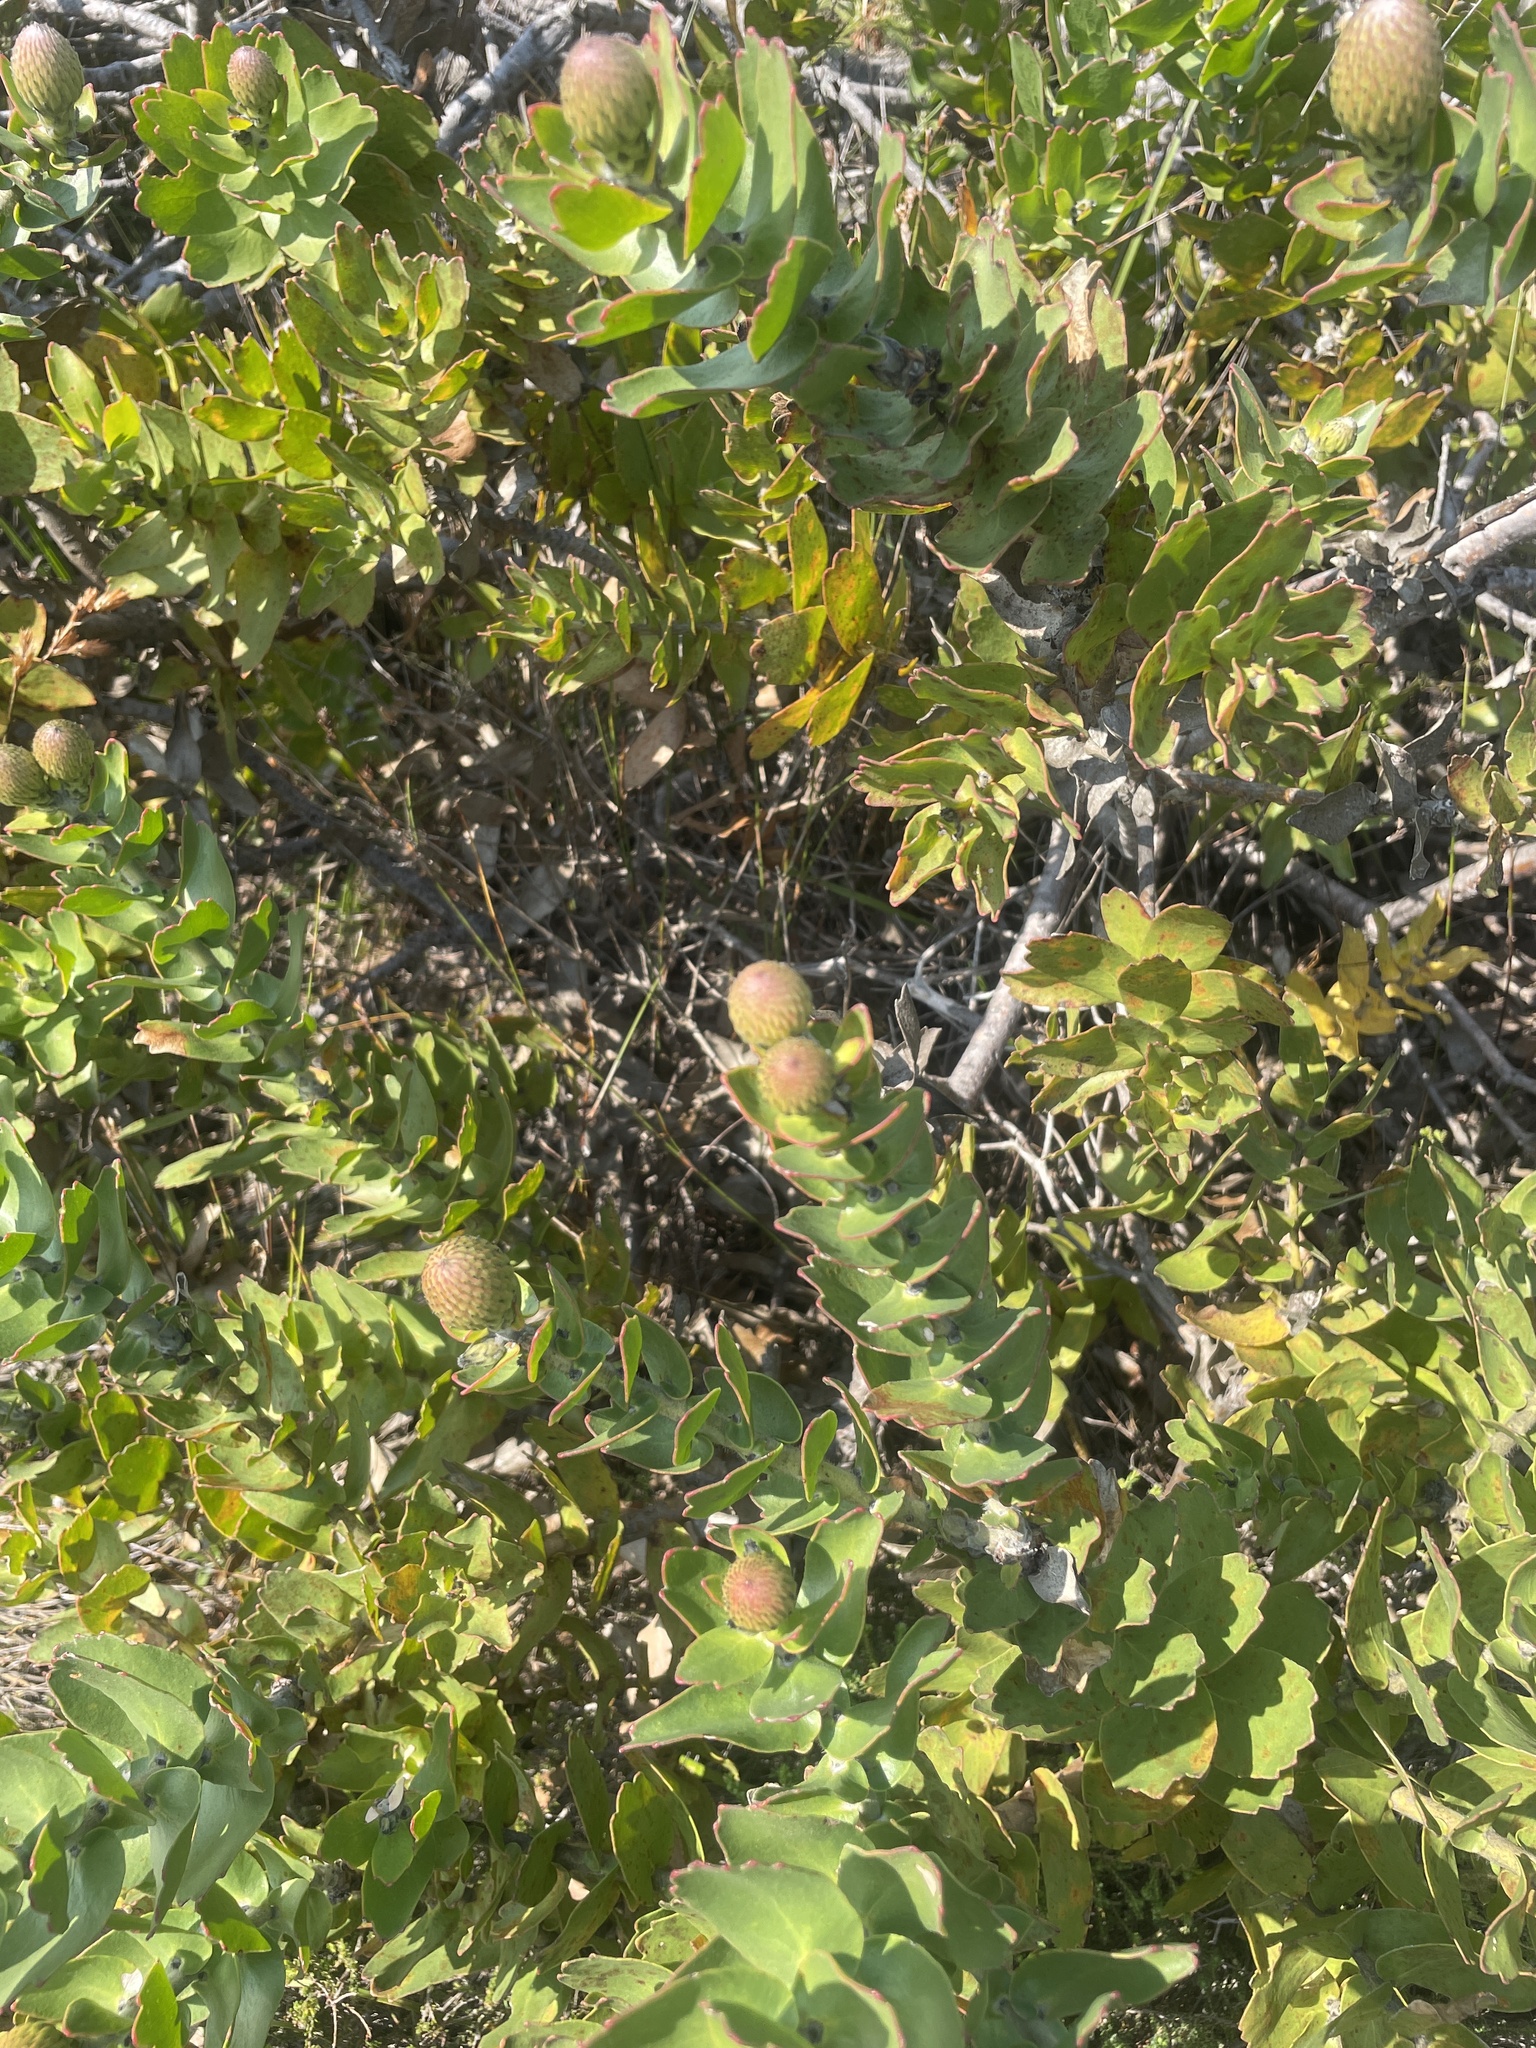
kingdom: Plantae
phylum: Tracheophyta
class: Magnoliopsida
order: Proteales
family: Proteaceae
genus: Leucospermum
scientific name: Leucospermum patersonii
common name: False tree pincushion
